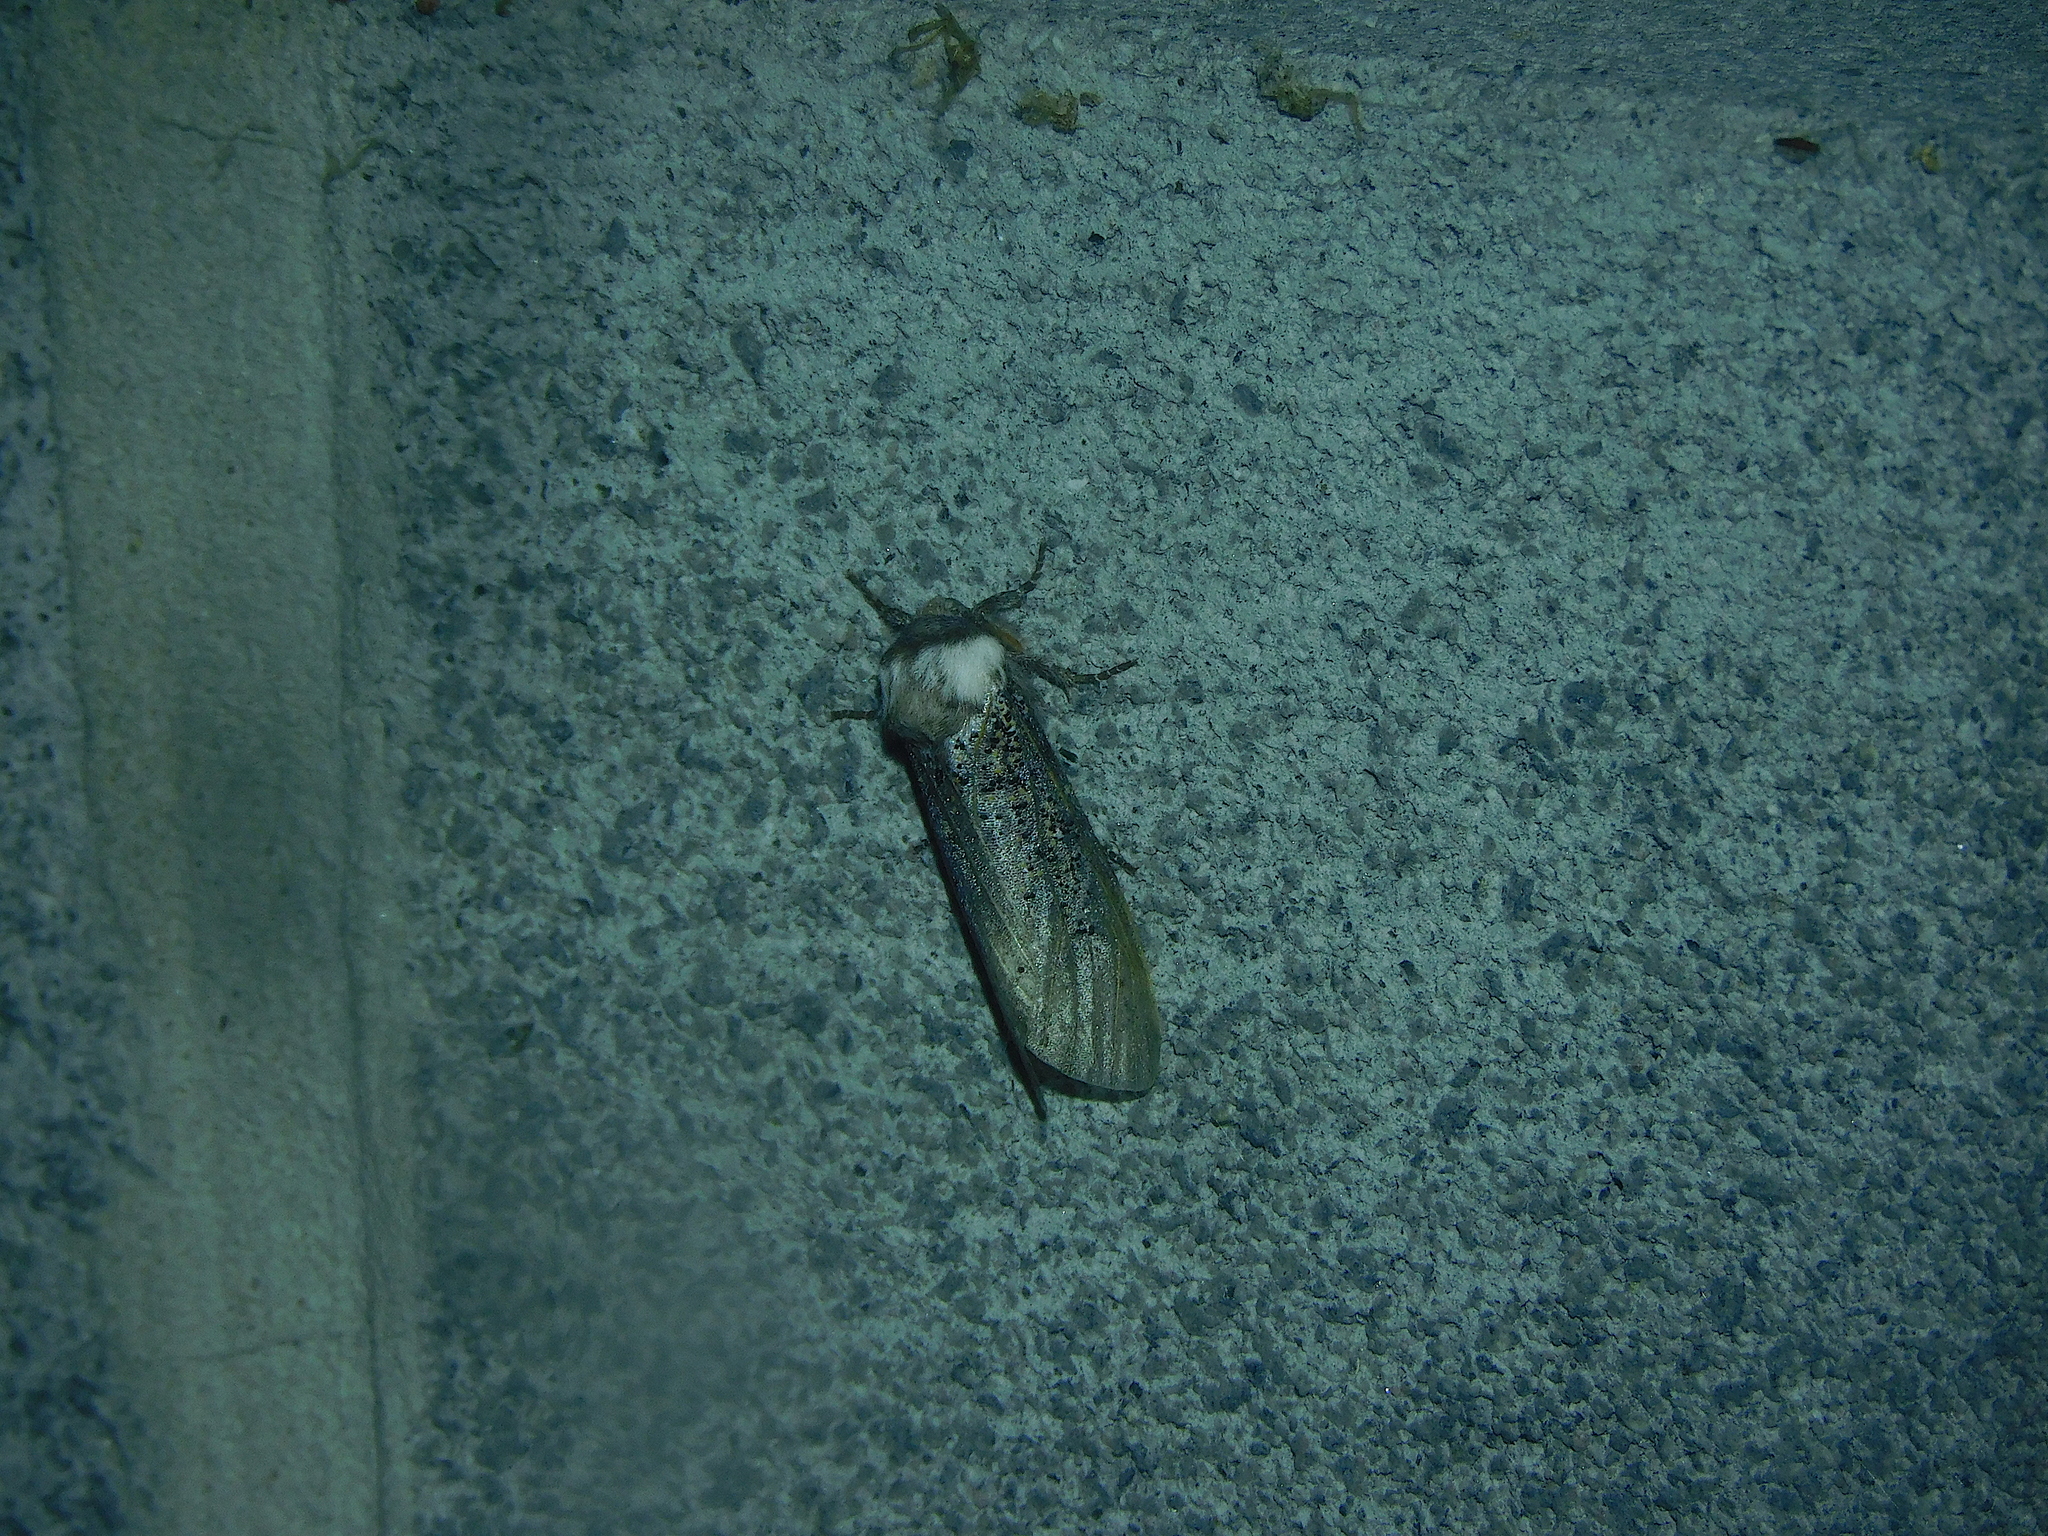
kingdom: Animalia
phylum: Arthropoda
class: Insecta
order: Lepidoptera
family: Oenosandridae
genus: Oenosandra
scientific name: Oenosandra boisduvalii
